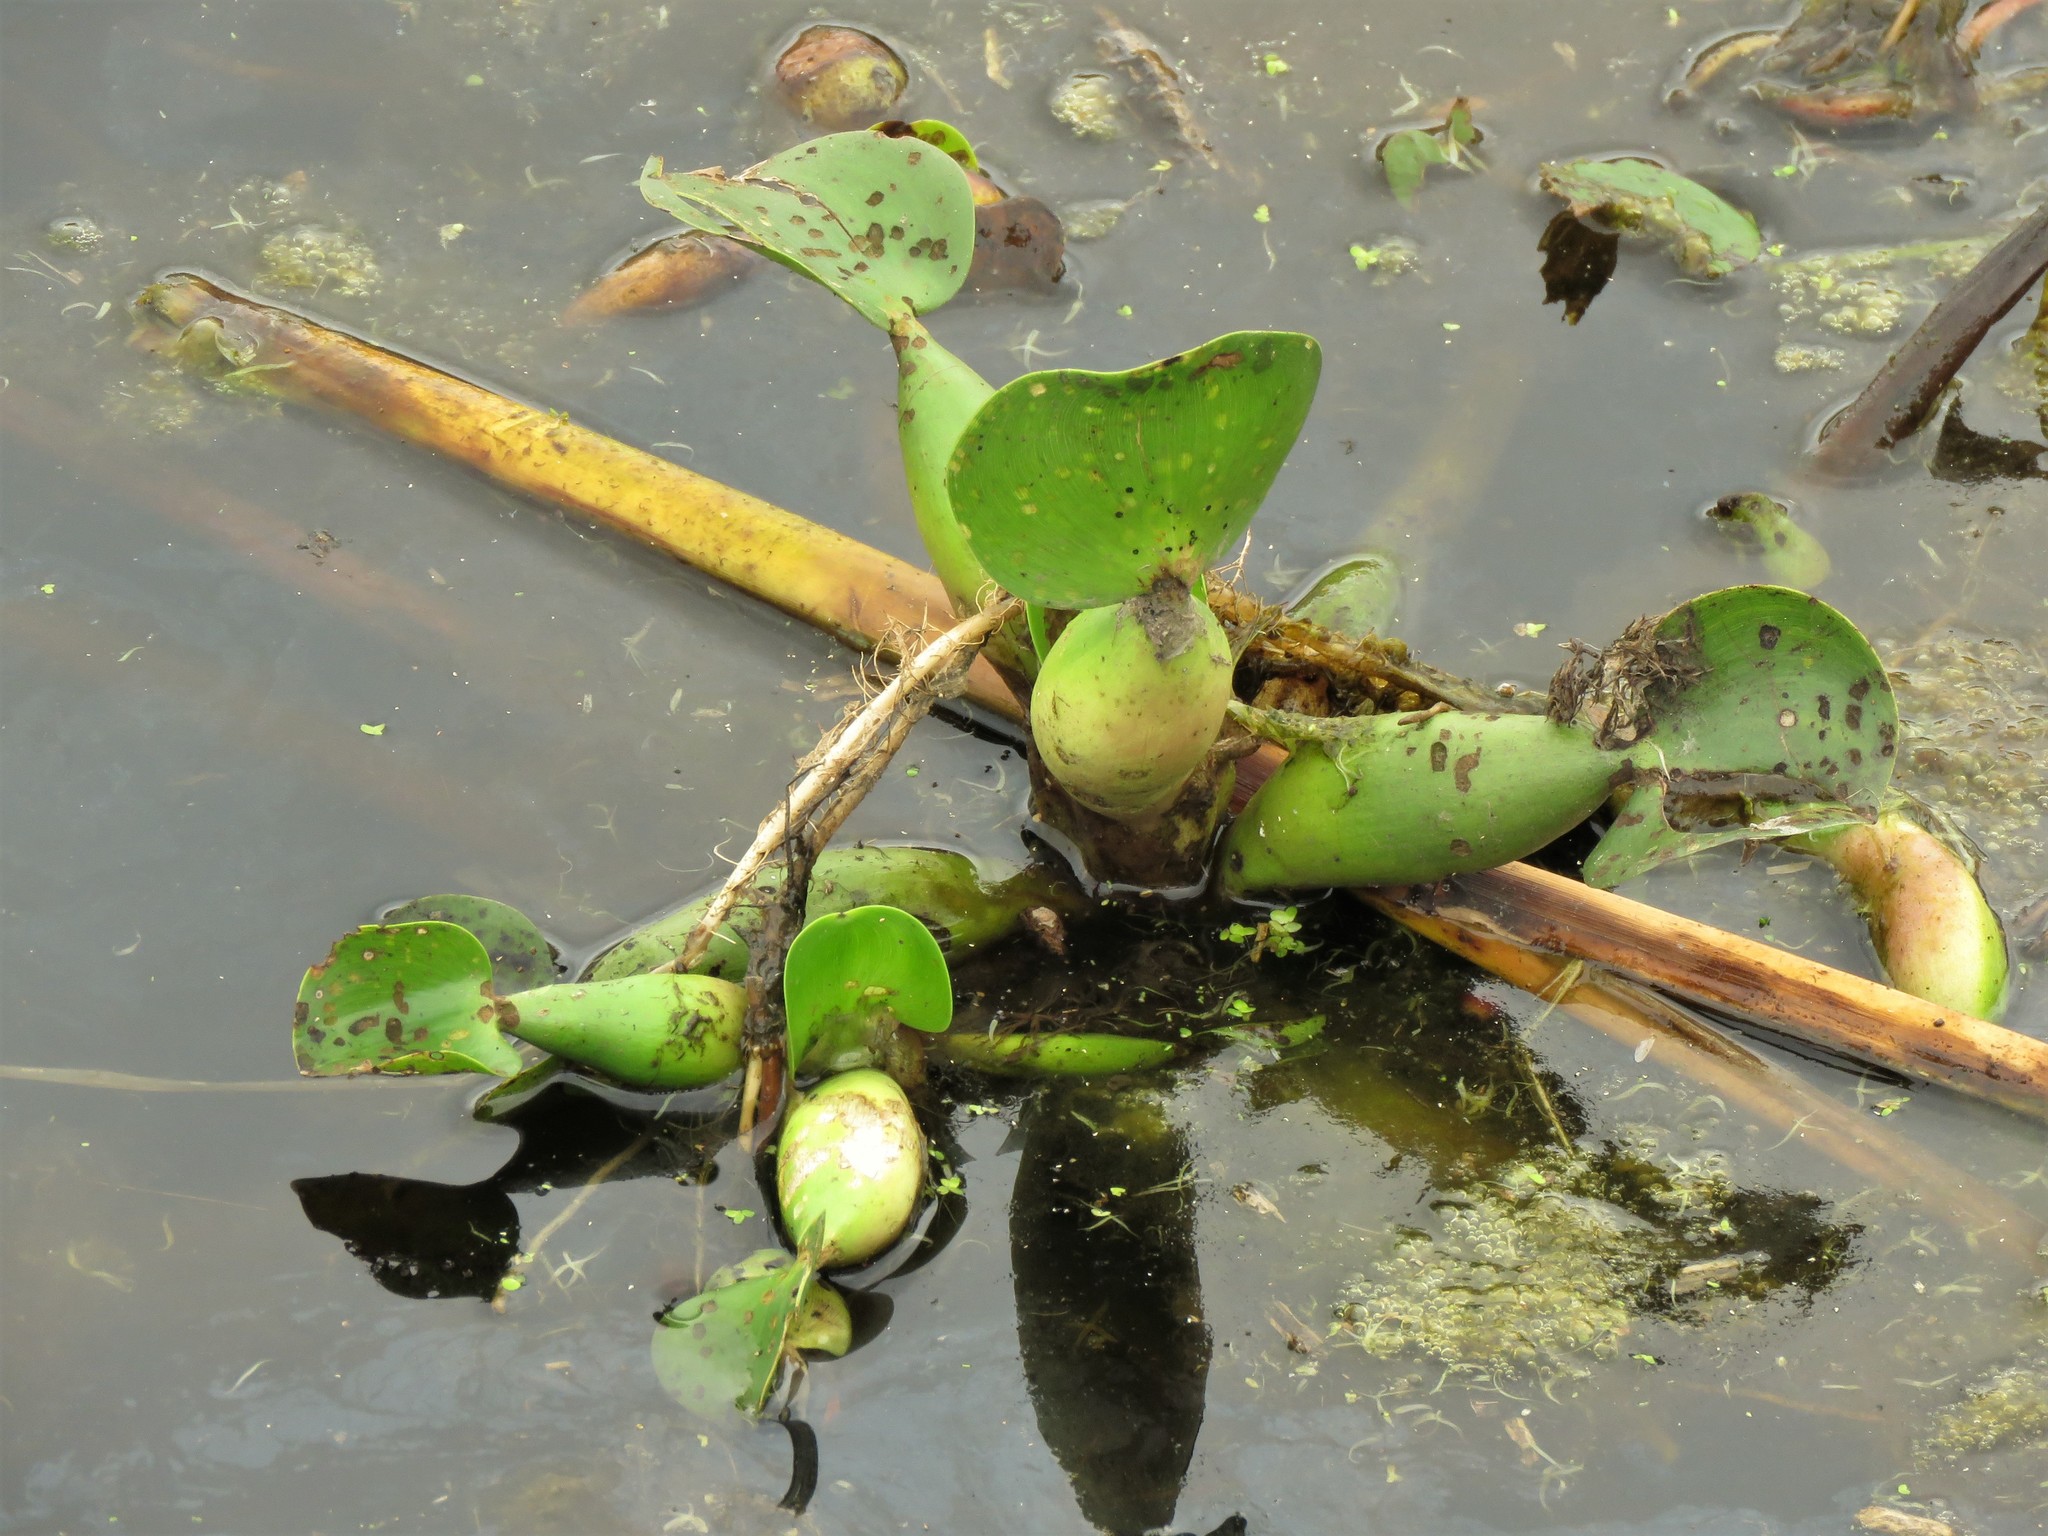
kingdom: Plantae
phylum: Tracheophyta
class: Liliopsida
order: Commelinales
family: Pontederiaceae
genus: Pontederia
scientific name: Pontederia crassipes
